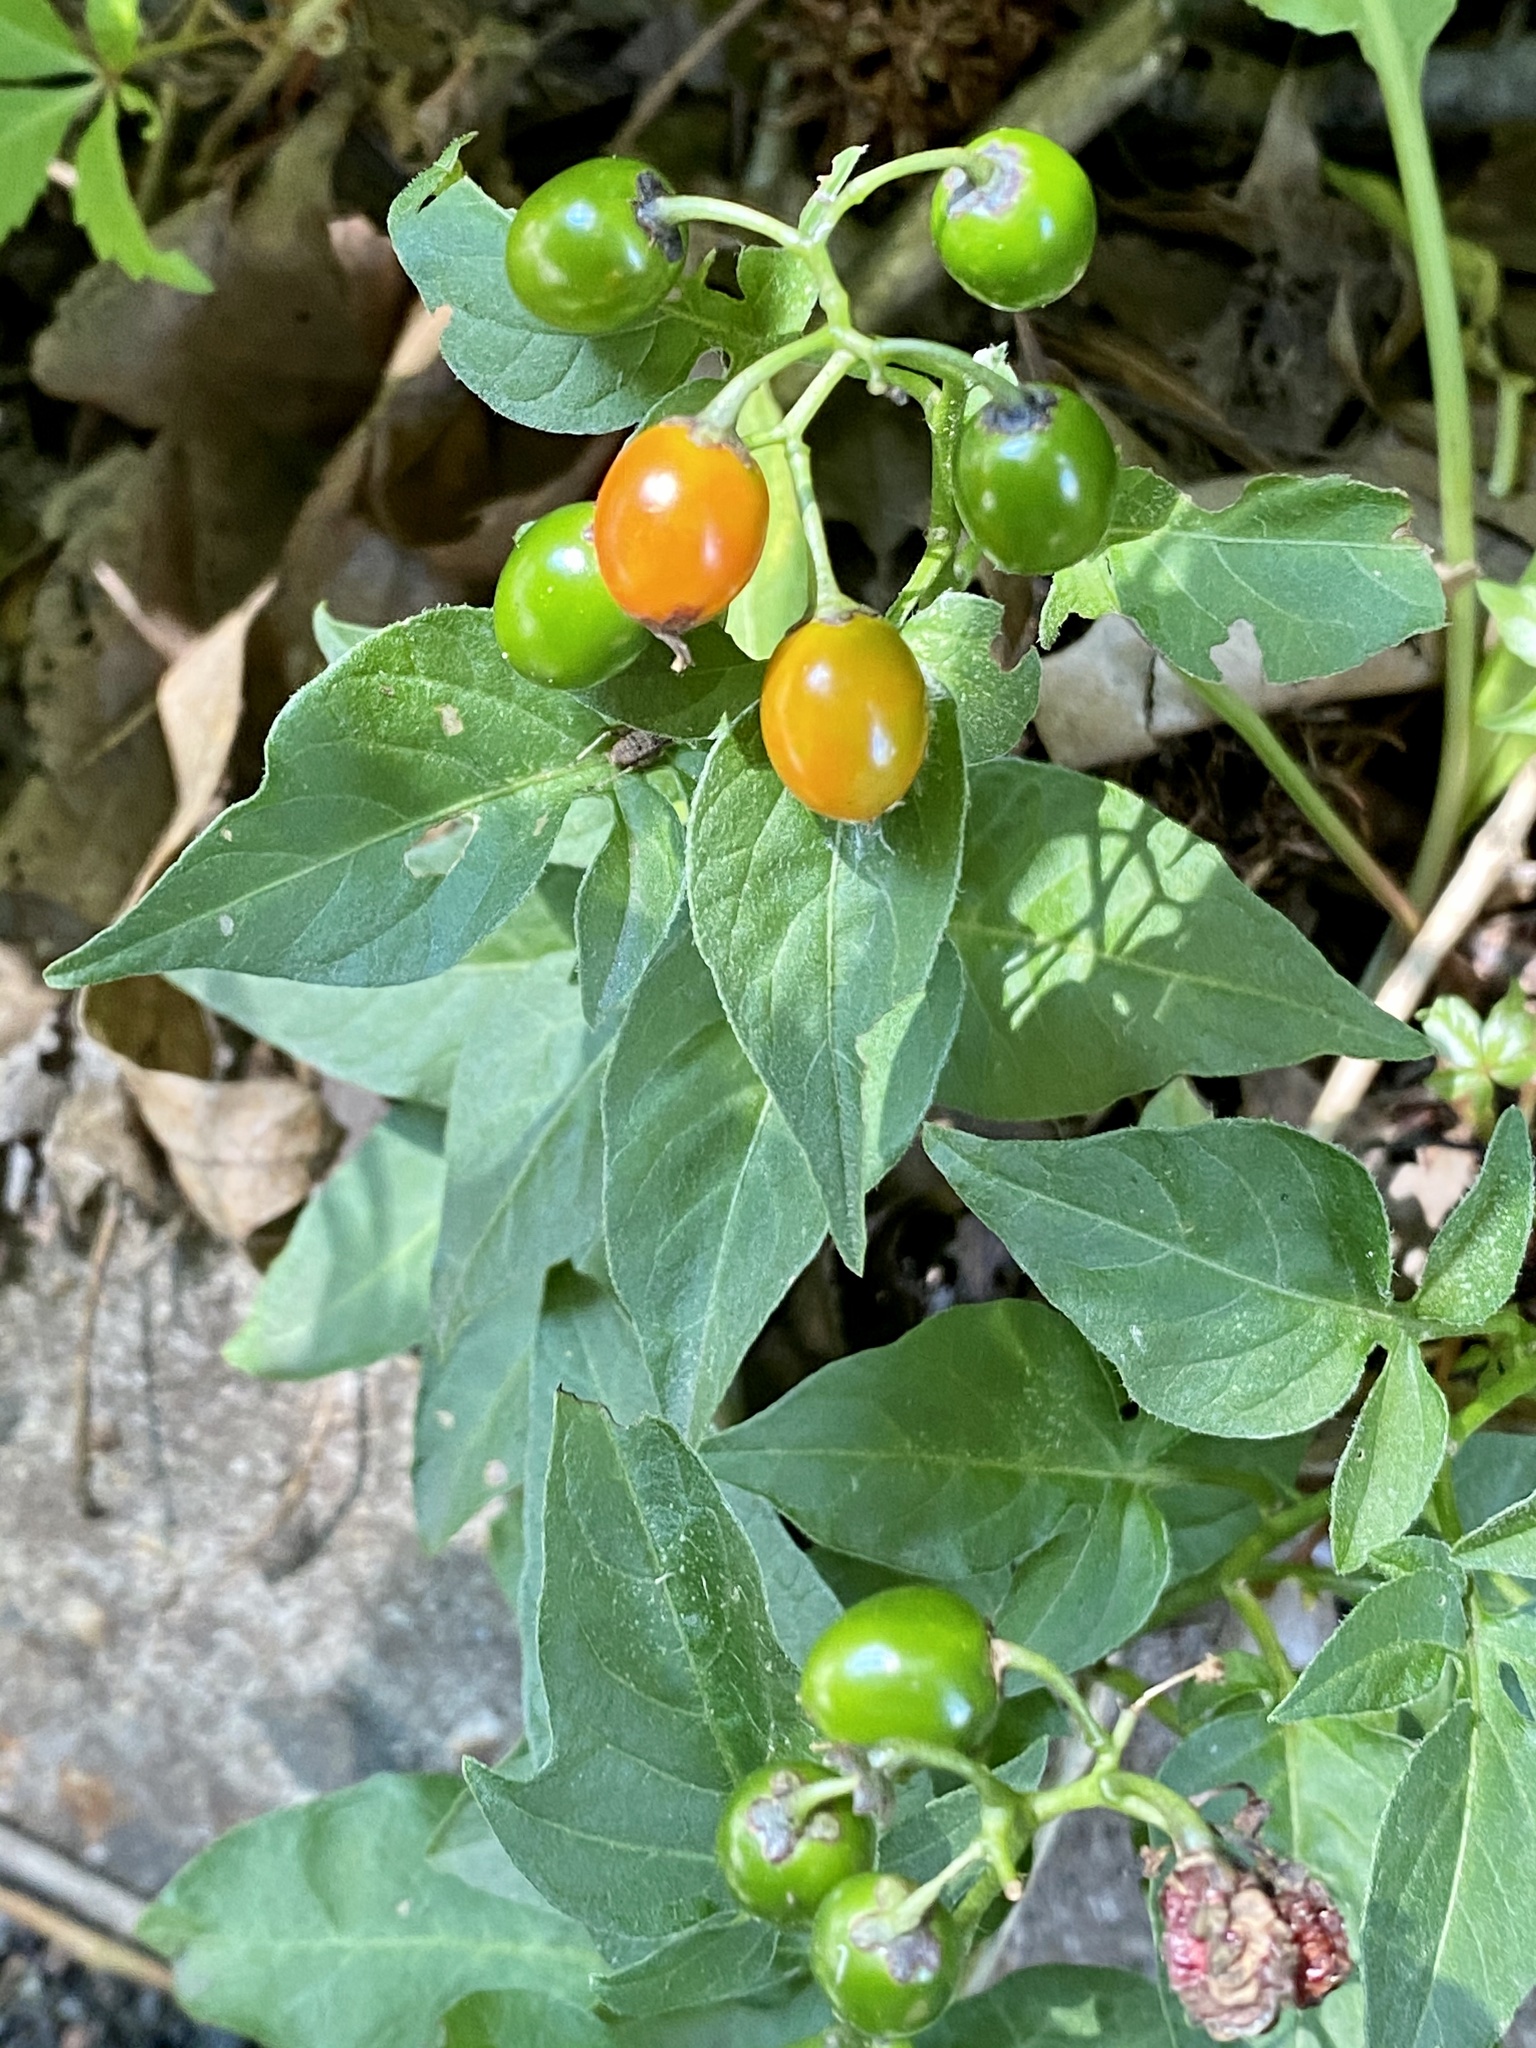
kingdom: Plantae
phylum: Tracheophyta
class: Magnoliopsida
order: Solanales
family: Solanaceae
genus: Solanum
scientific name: Solanum dulcamara
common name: Climbing nightshade
